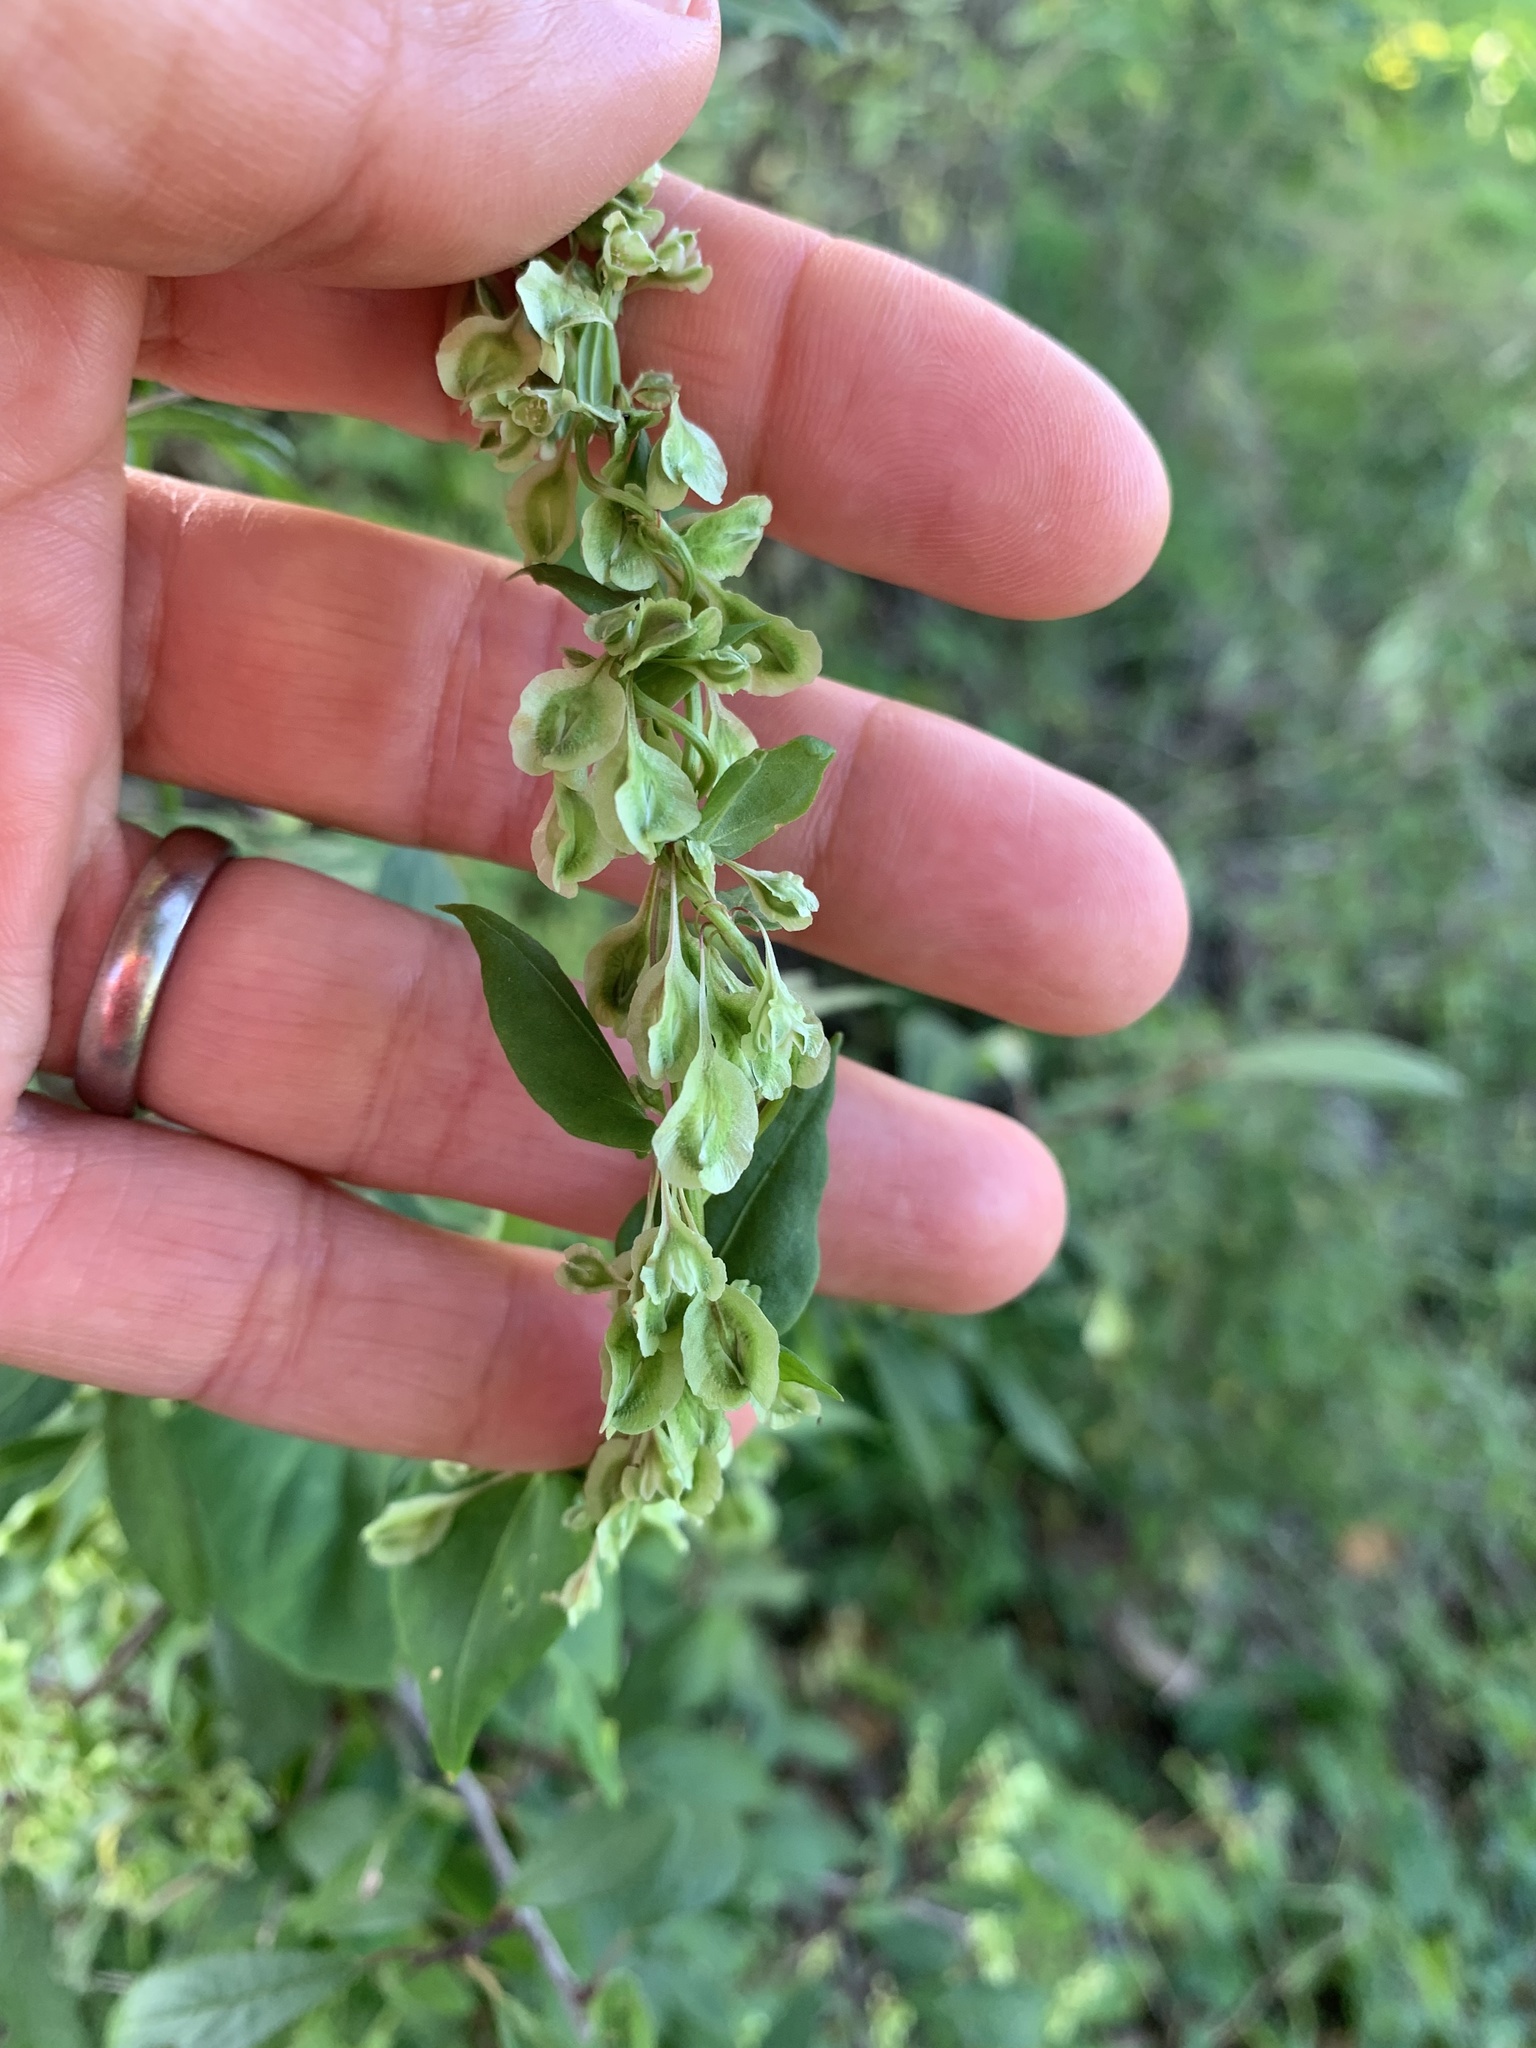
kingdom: Plantae
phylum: Tracheophyta
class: Magnoliopsida
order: Caryophyllales
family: Polygonaceae
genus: Fallopia
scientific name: Fallopia dumetorum
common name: Copse-bindweed
